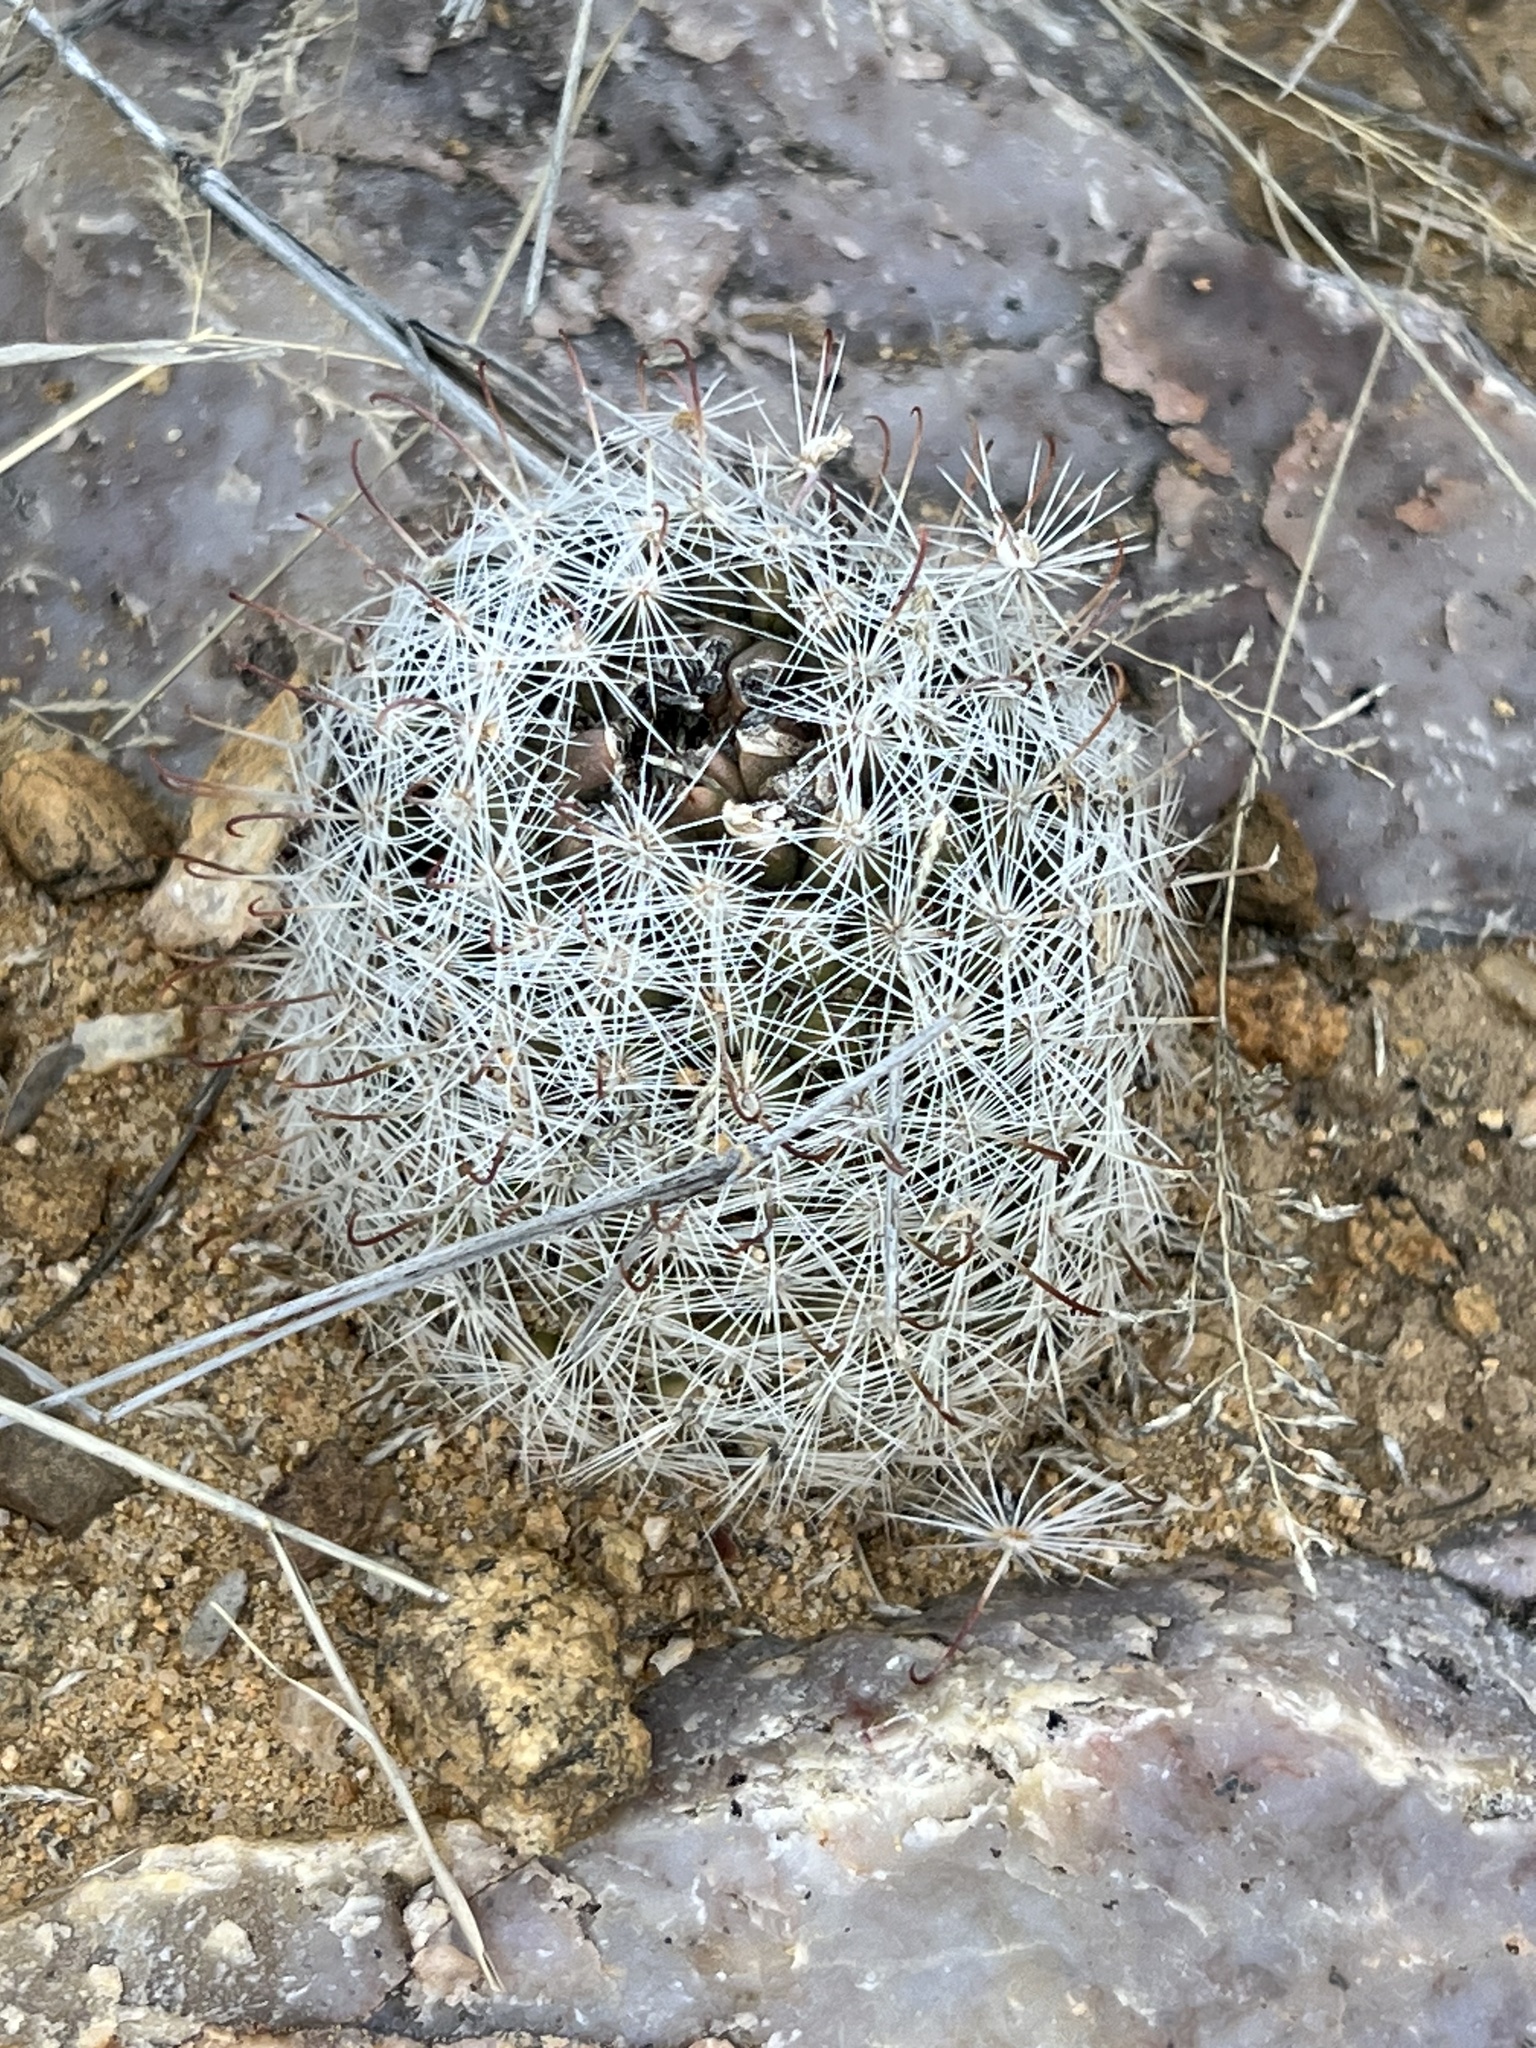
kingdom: Plantae
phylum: Tracheophyta
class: Magnoliopsida
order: Caryophyllales
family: Cactaceae
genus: Cochemiea
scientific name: Cochemiea grahamii
